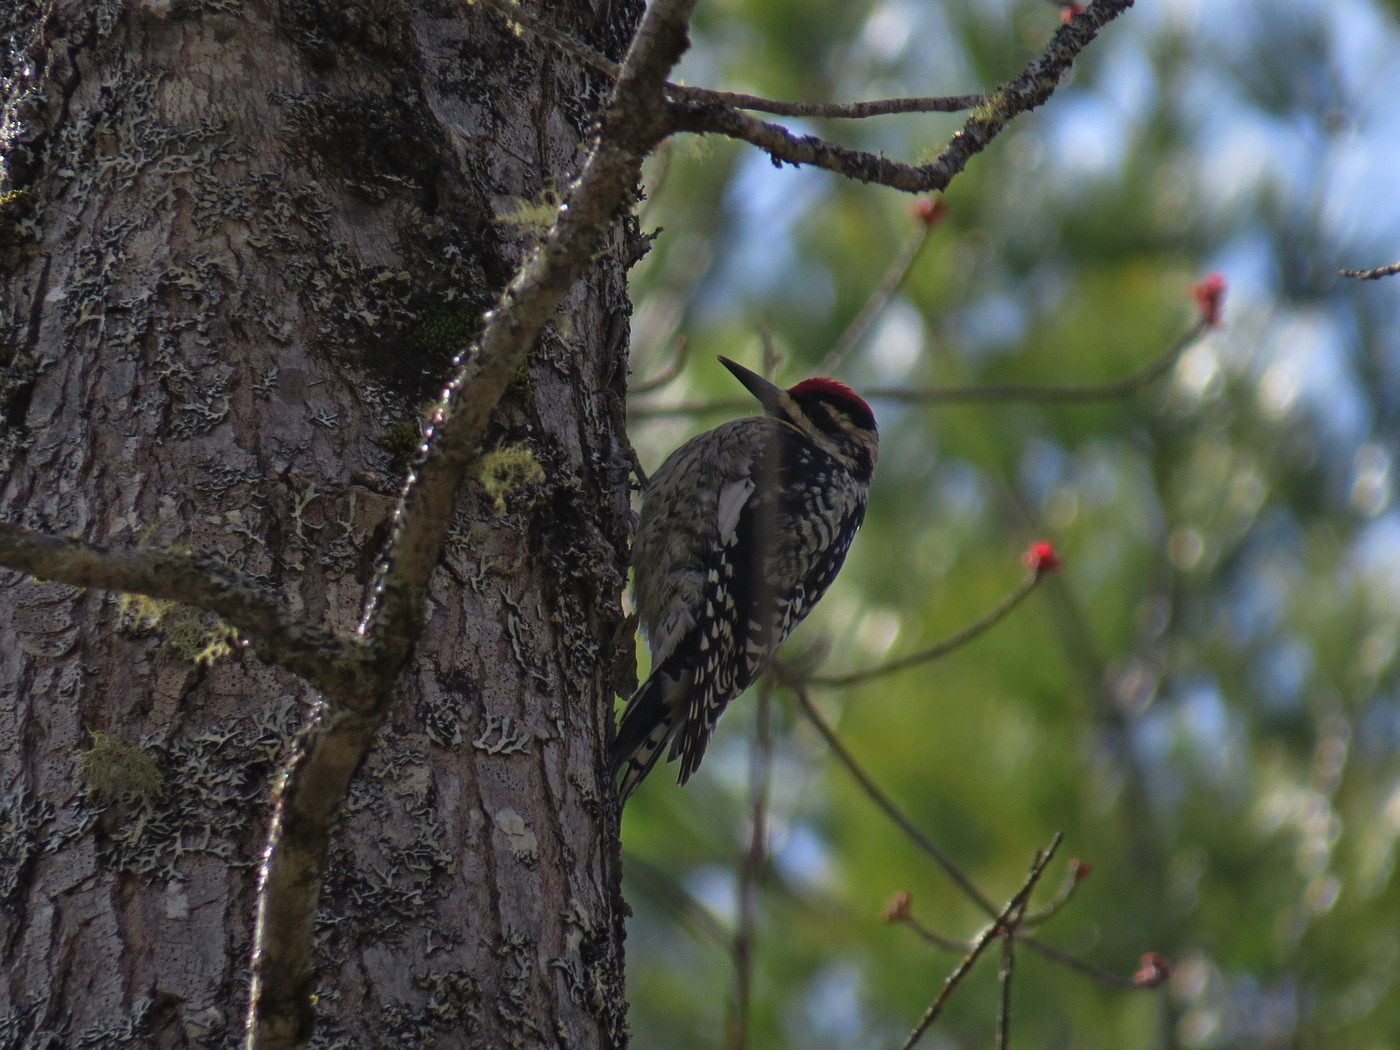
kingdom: Animalia
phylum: Chordata
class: Aves
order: Piciformes
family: Picidae
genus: Sphyrapicus
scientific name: Sphyrapicus varius
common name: Yellow-bellied sapsucker
